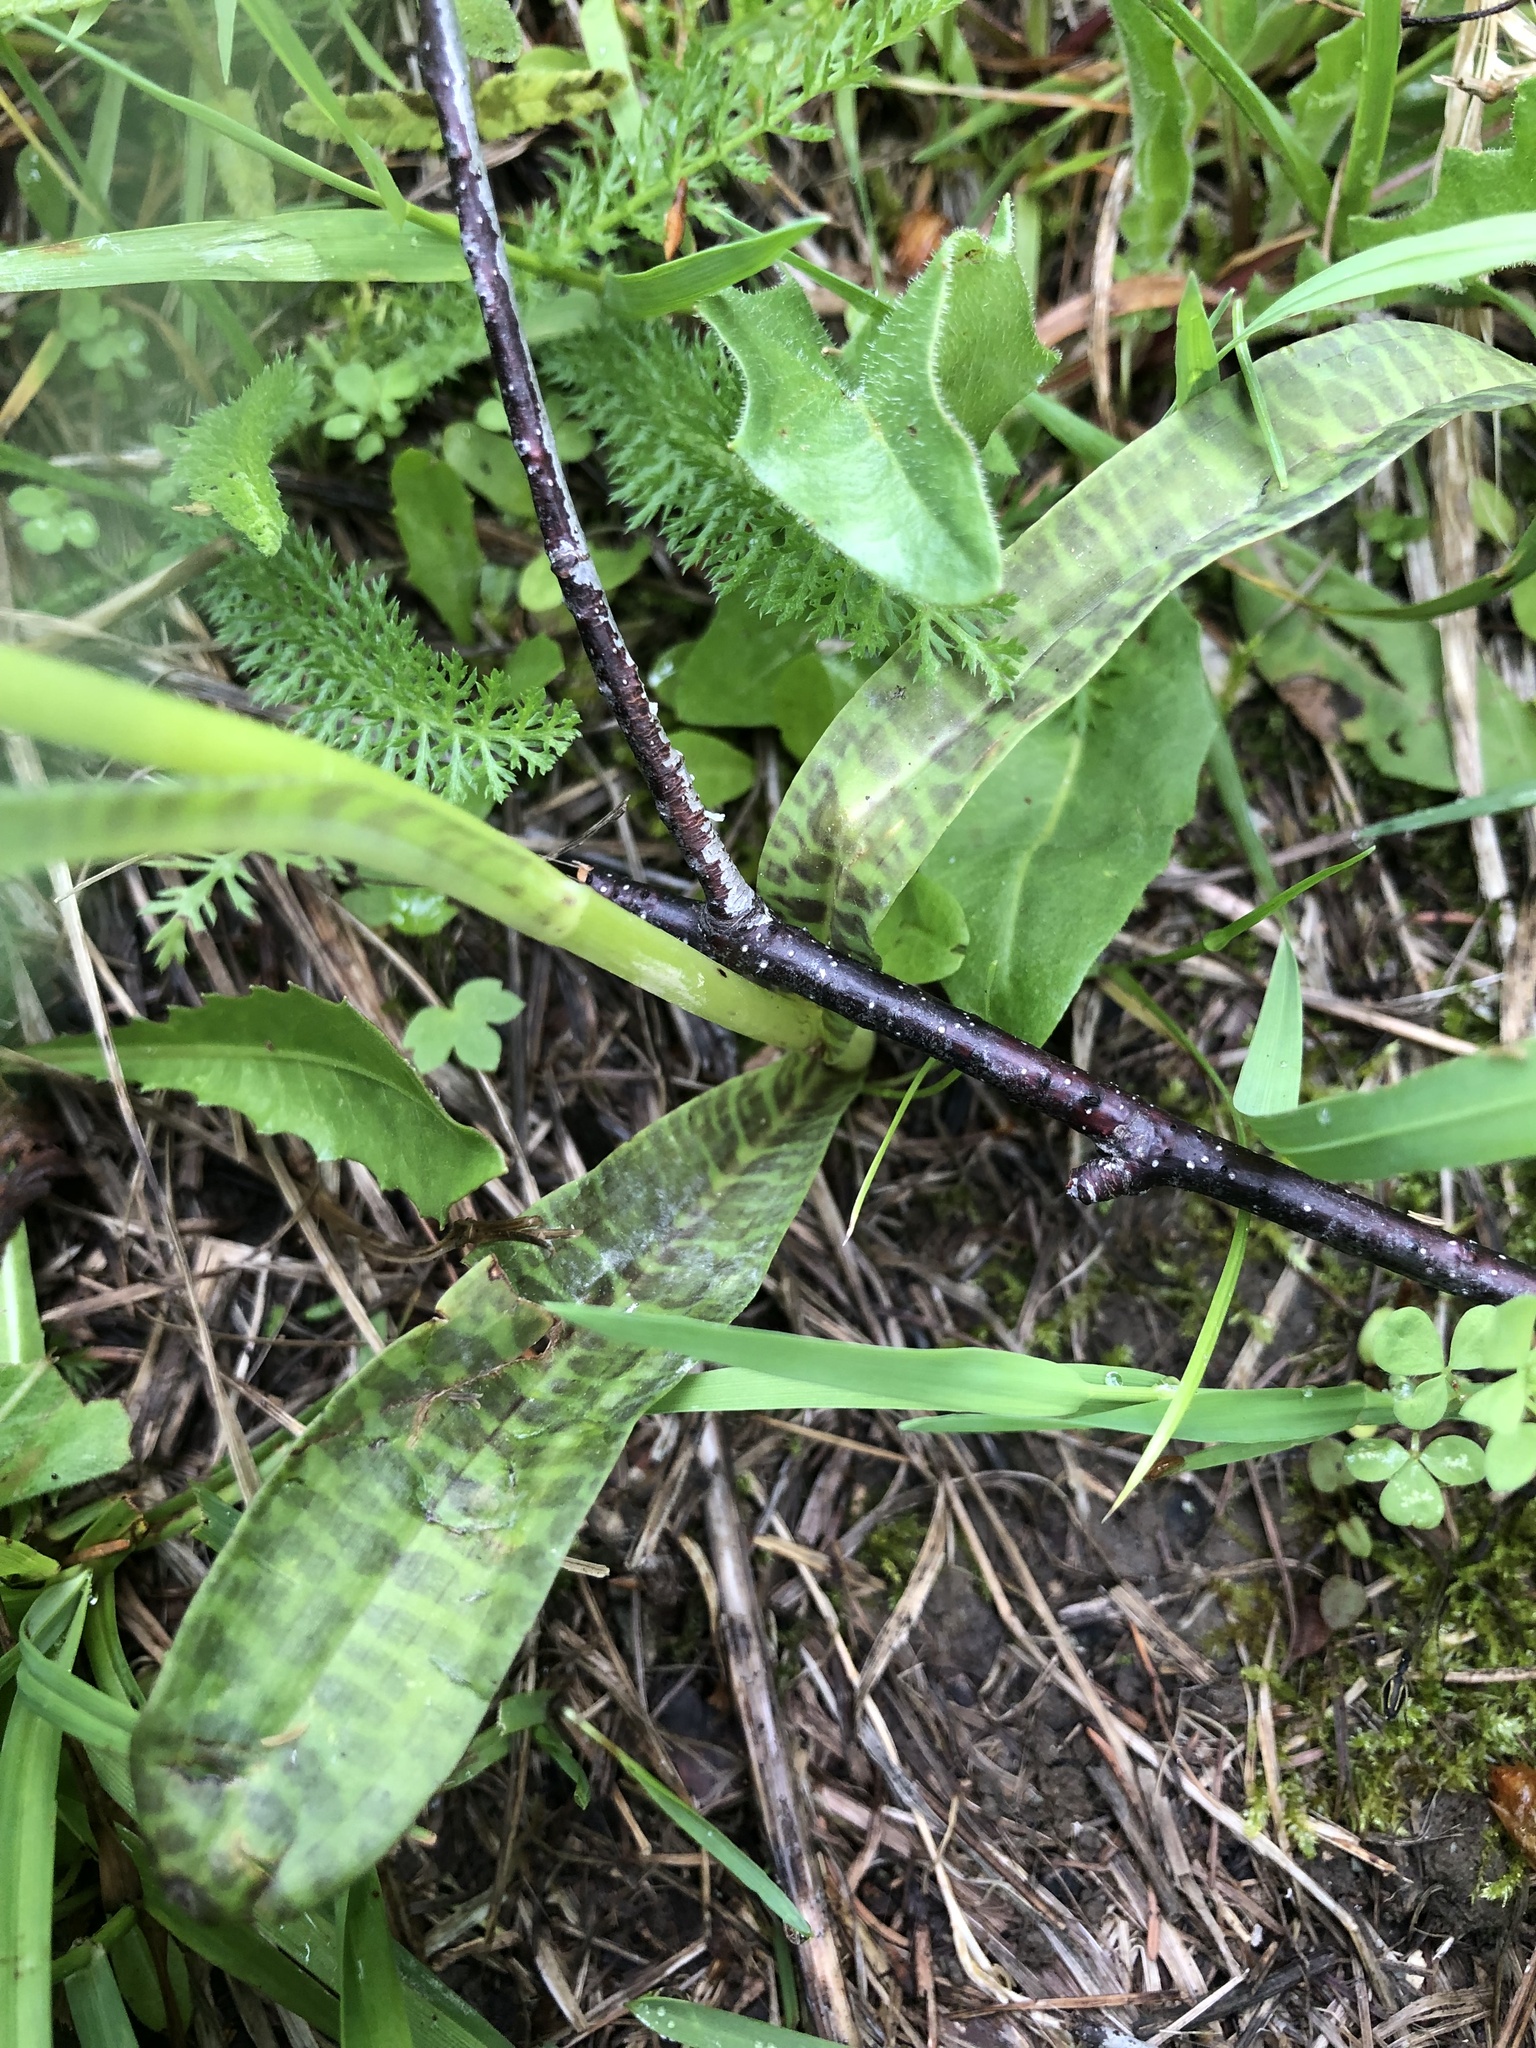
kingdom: Plantae
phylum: Tracheophyta
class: Liliopsida
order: Asparagales
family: Orchidaceae
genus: Dactylorhiza
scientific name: Dactylorhiza maculata
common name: Heath spotted-orchid
